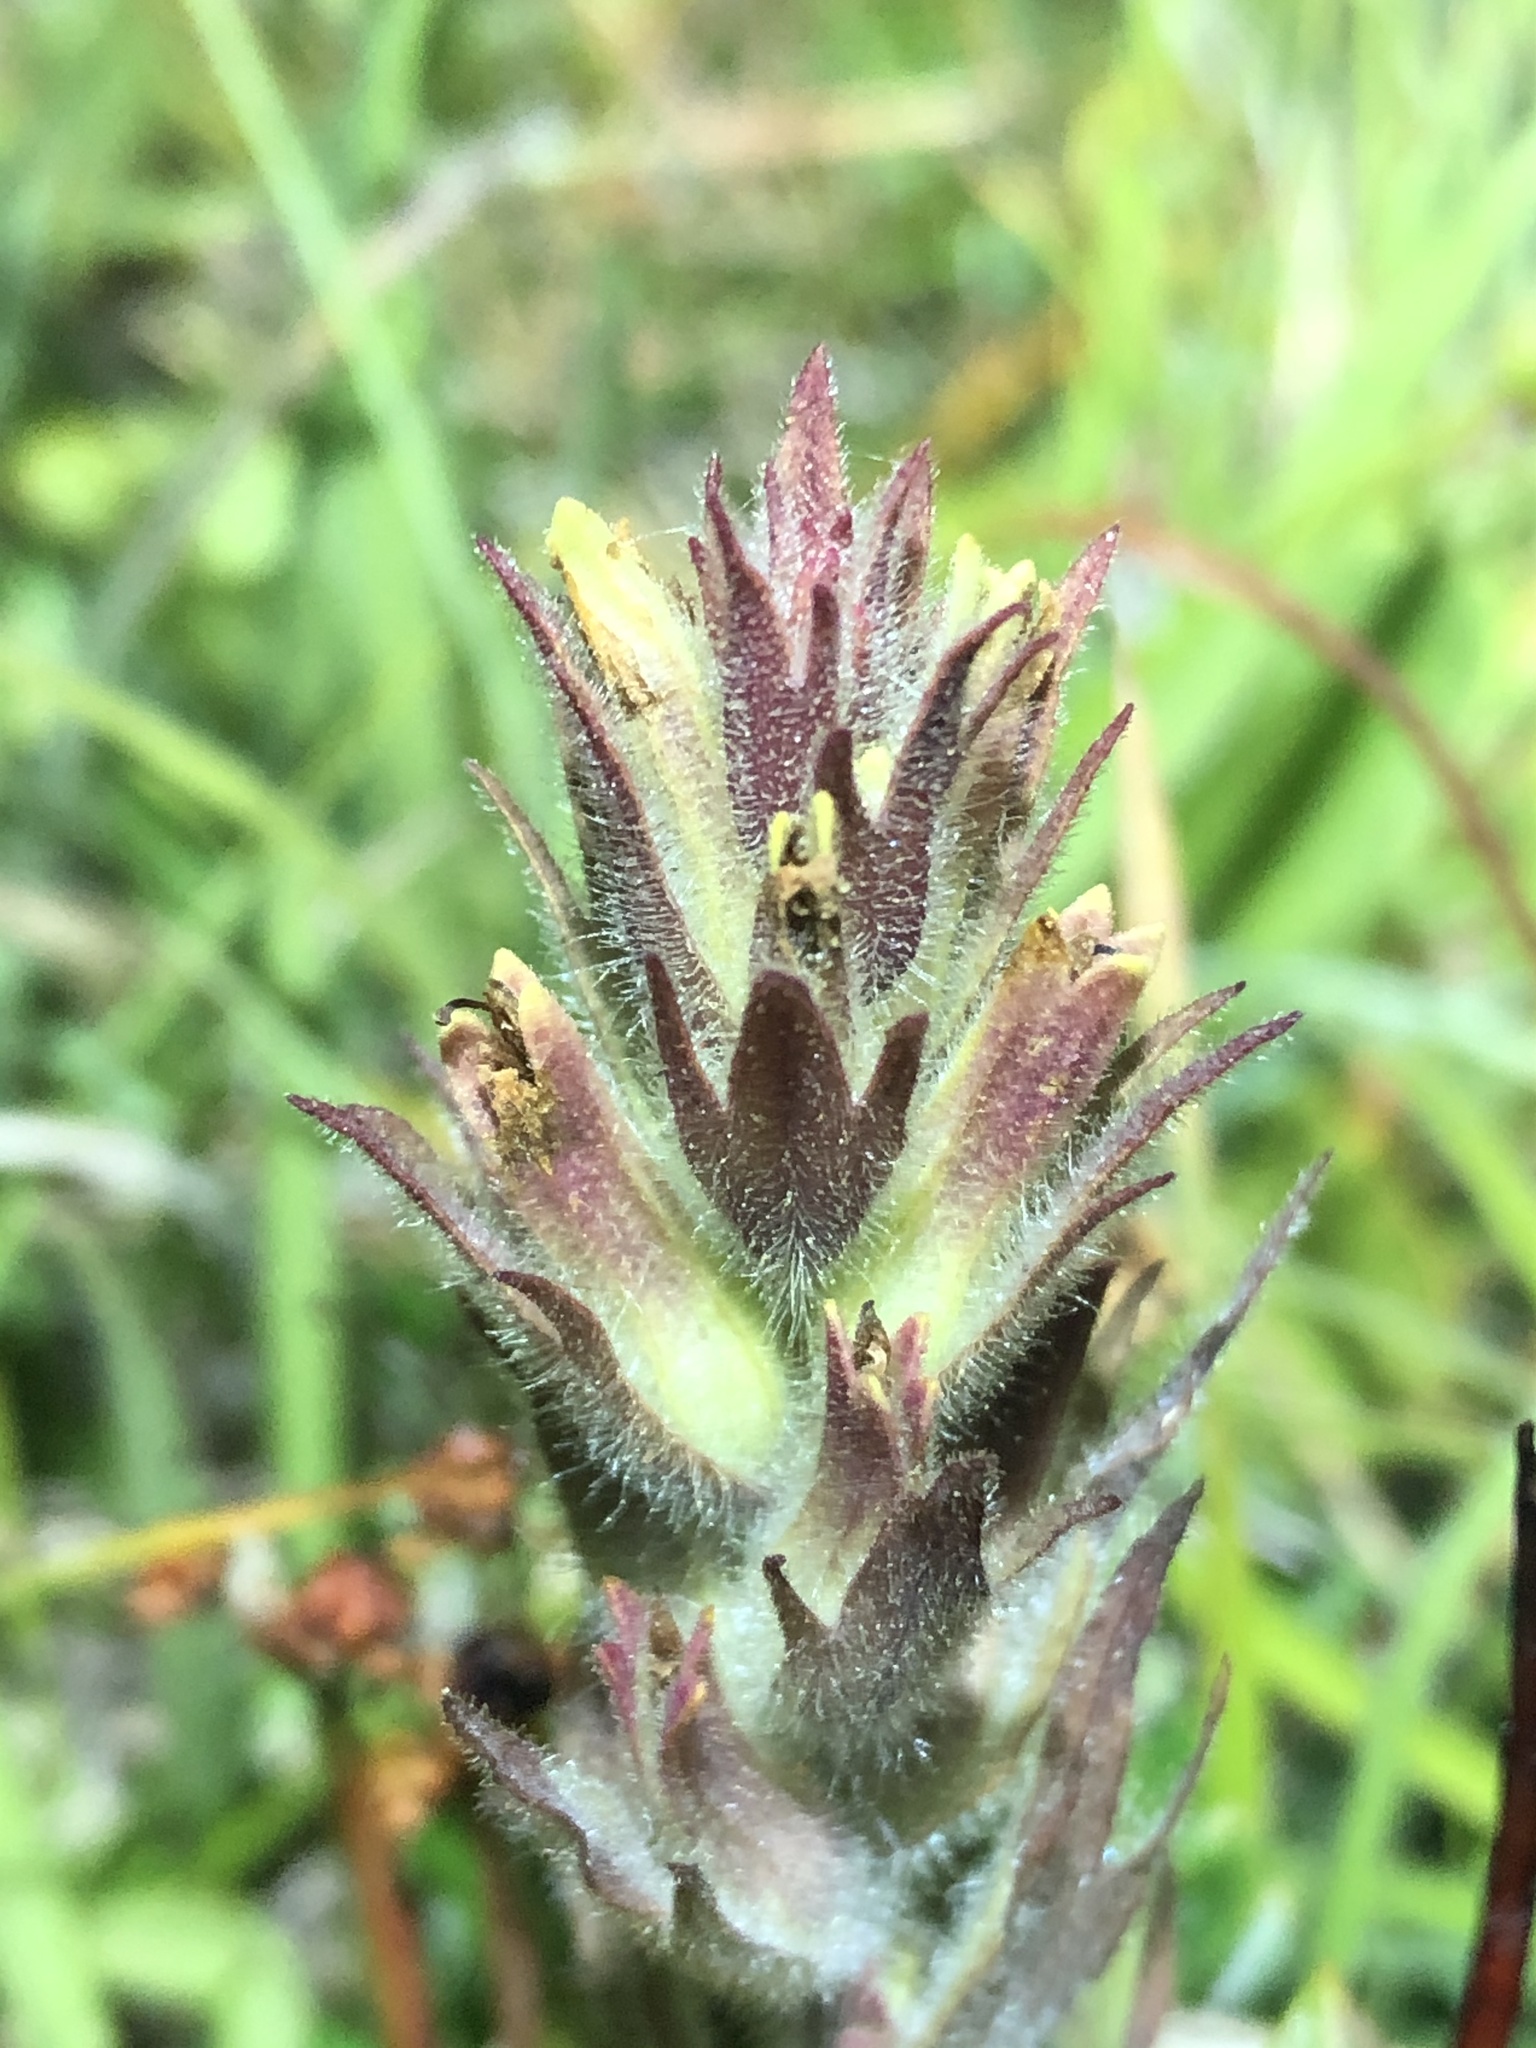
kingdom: Plantae
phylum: Tracheophyta
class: Magnoliopsida
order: Lamiales
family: Orobanchaceae
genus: Castilleja
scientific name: Castilleja cryptantha
